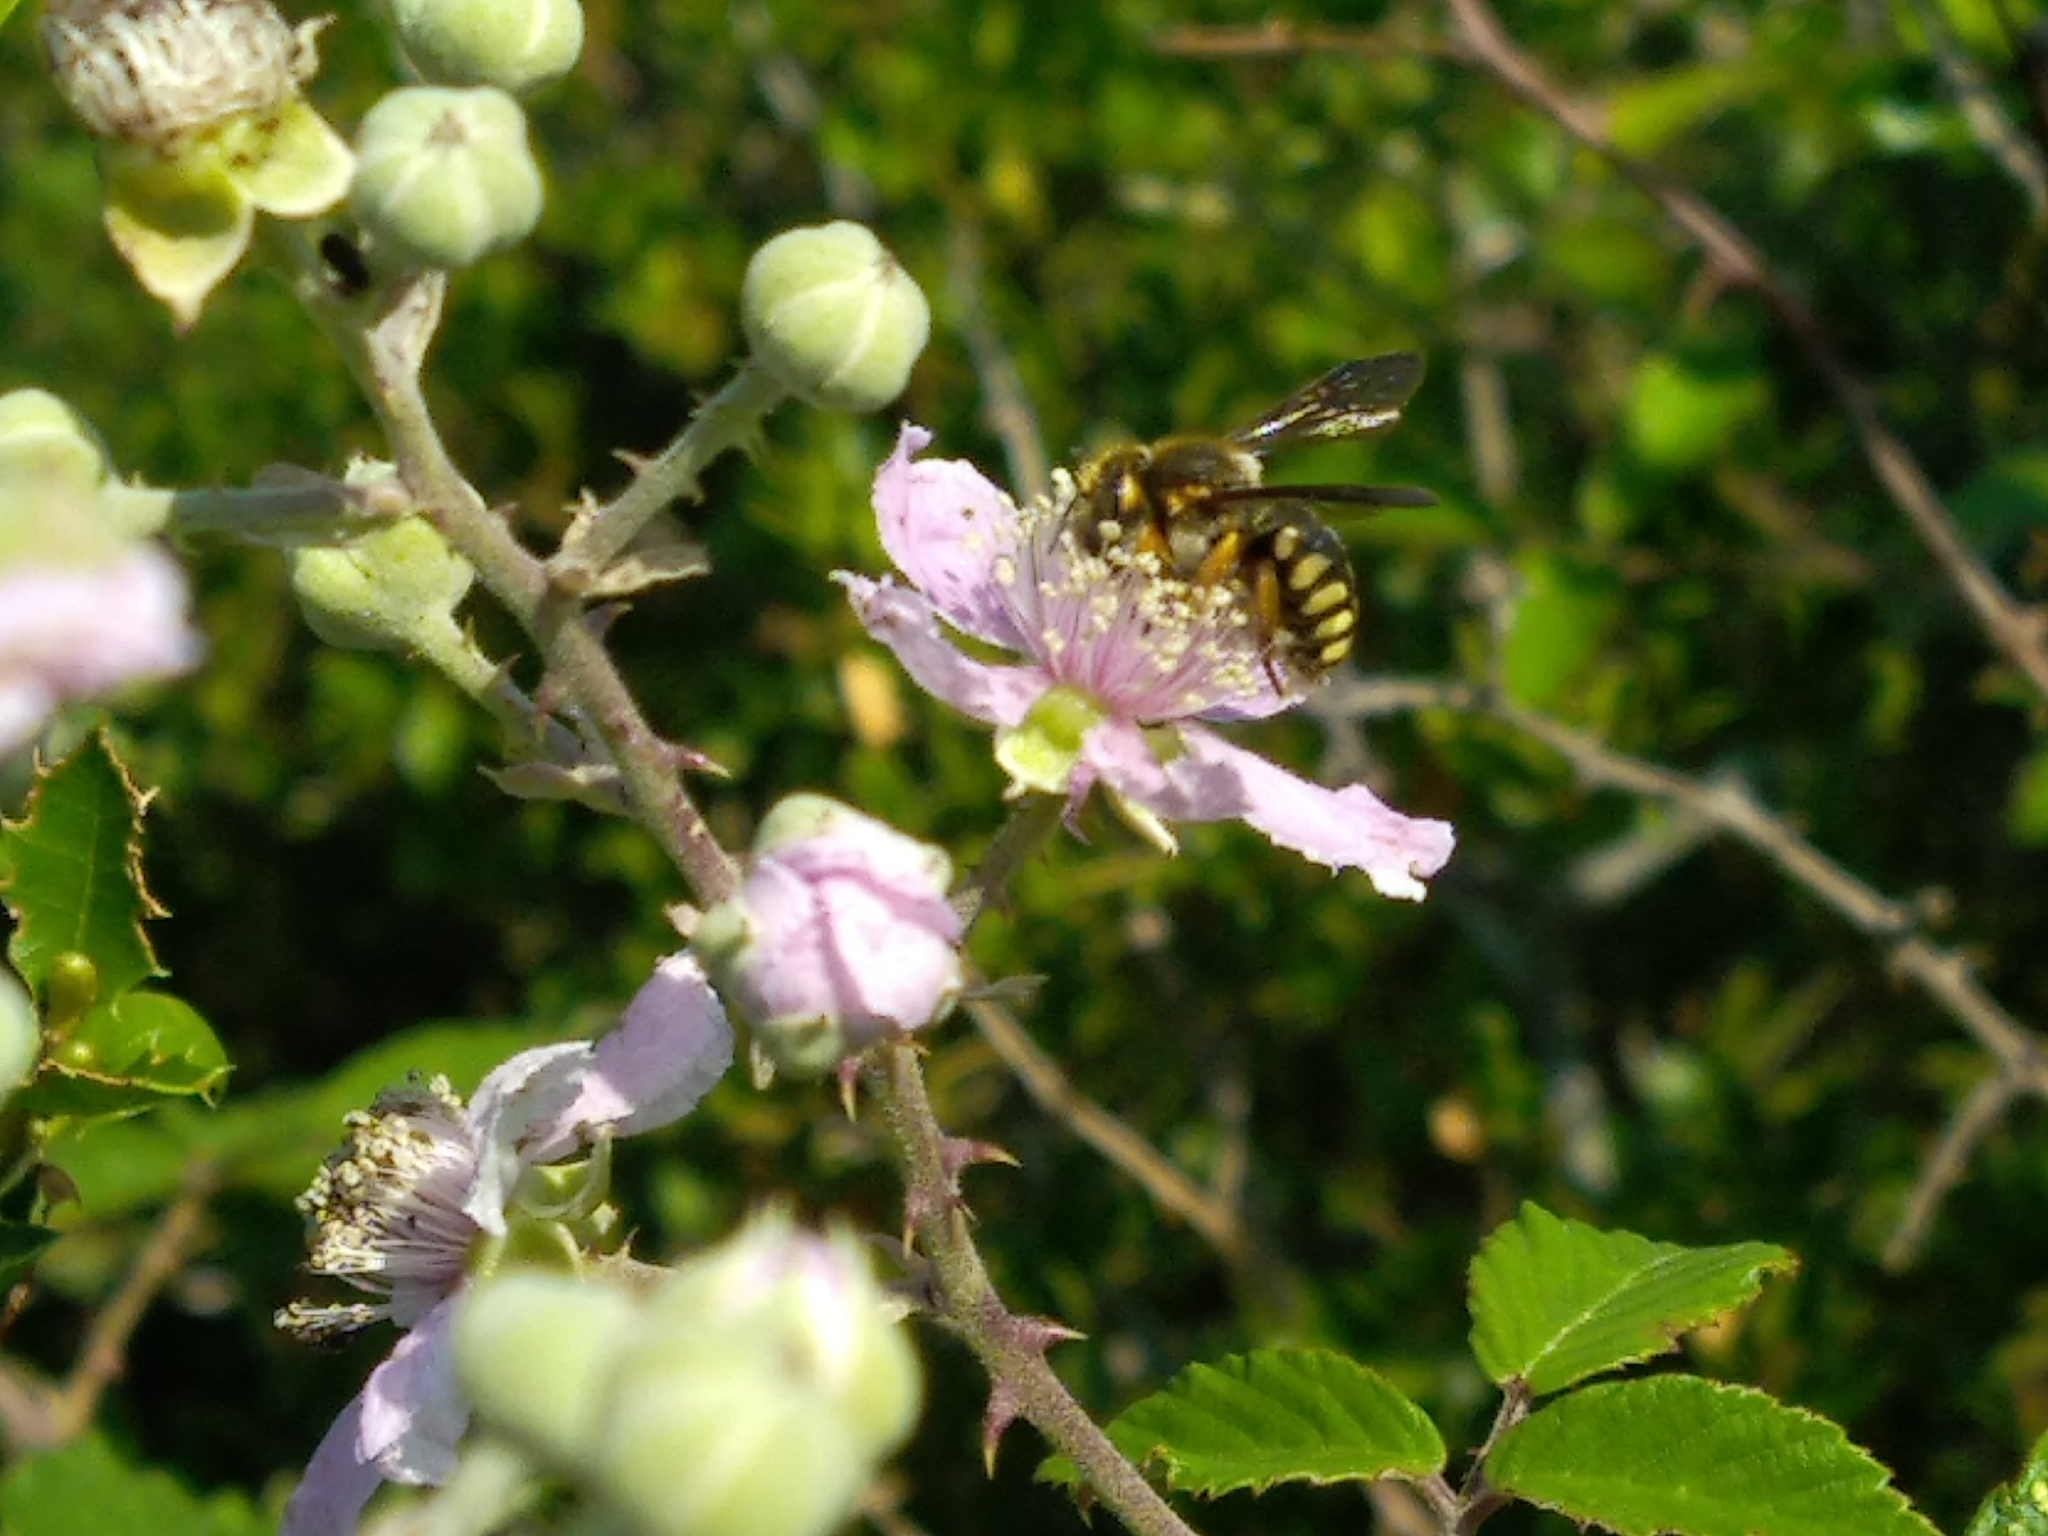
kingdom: Animalia
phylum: Arthropoda
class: Insecta
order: Hymenoptera
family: Megachilidae
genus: Rhodanthidium
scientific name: Rhodanthidium septemdentatum
